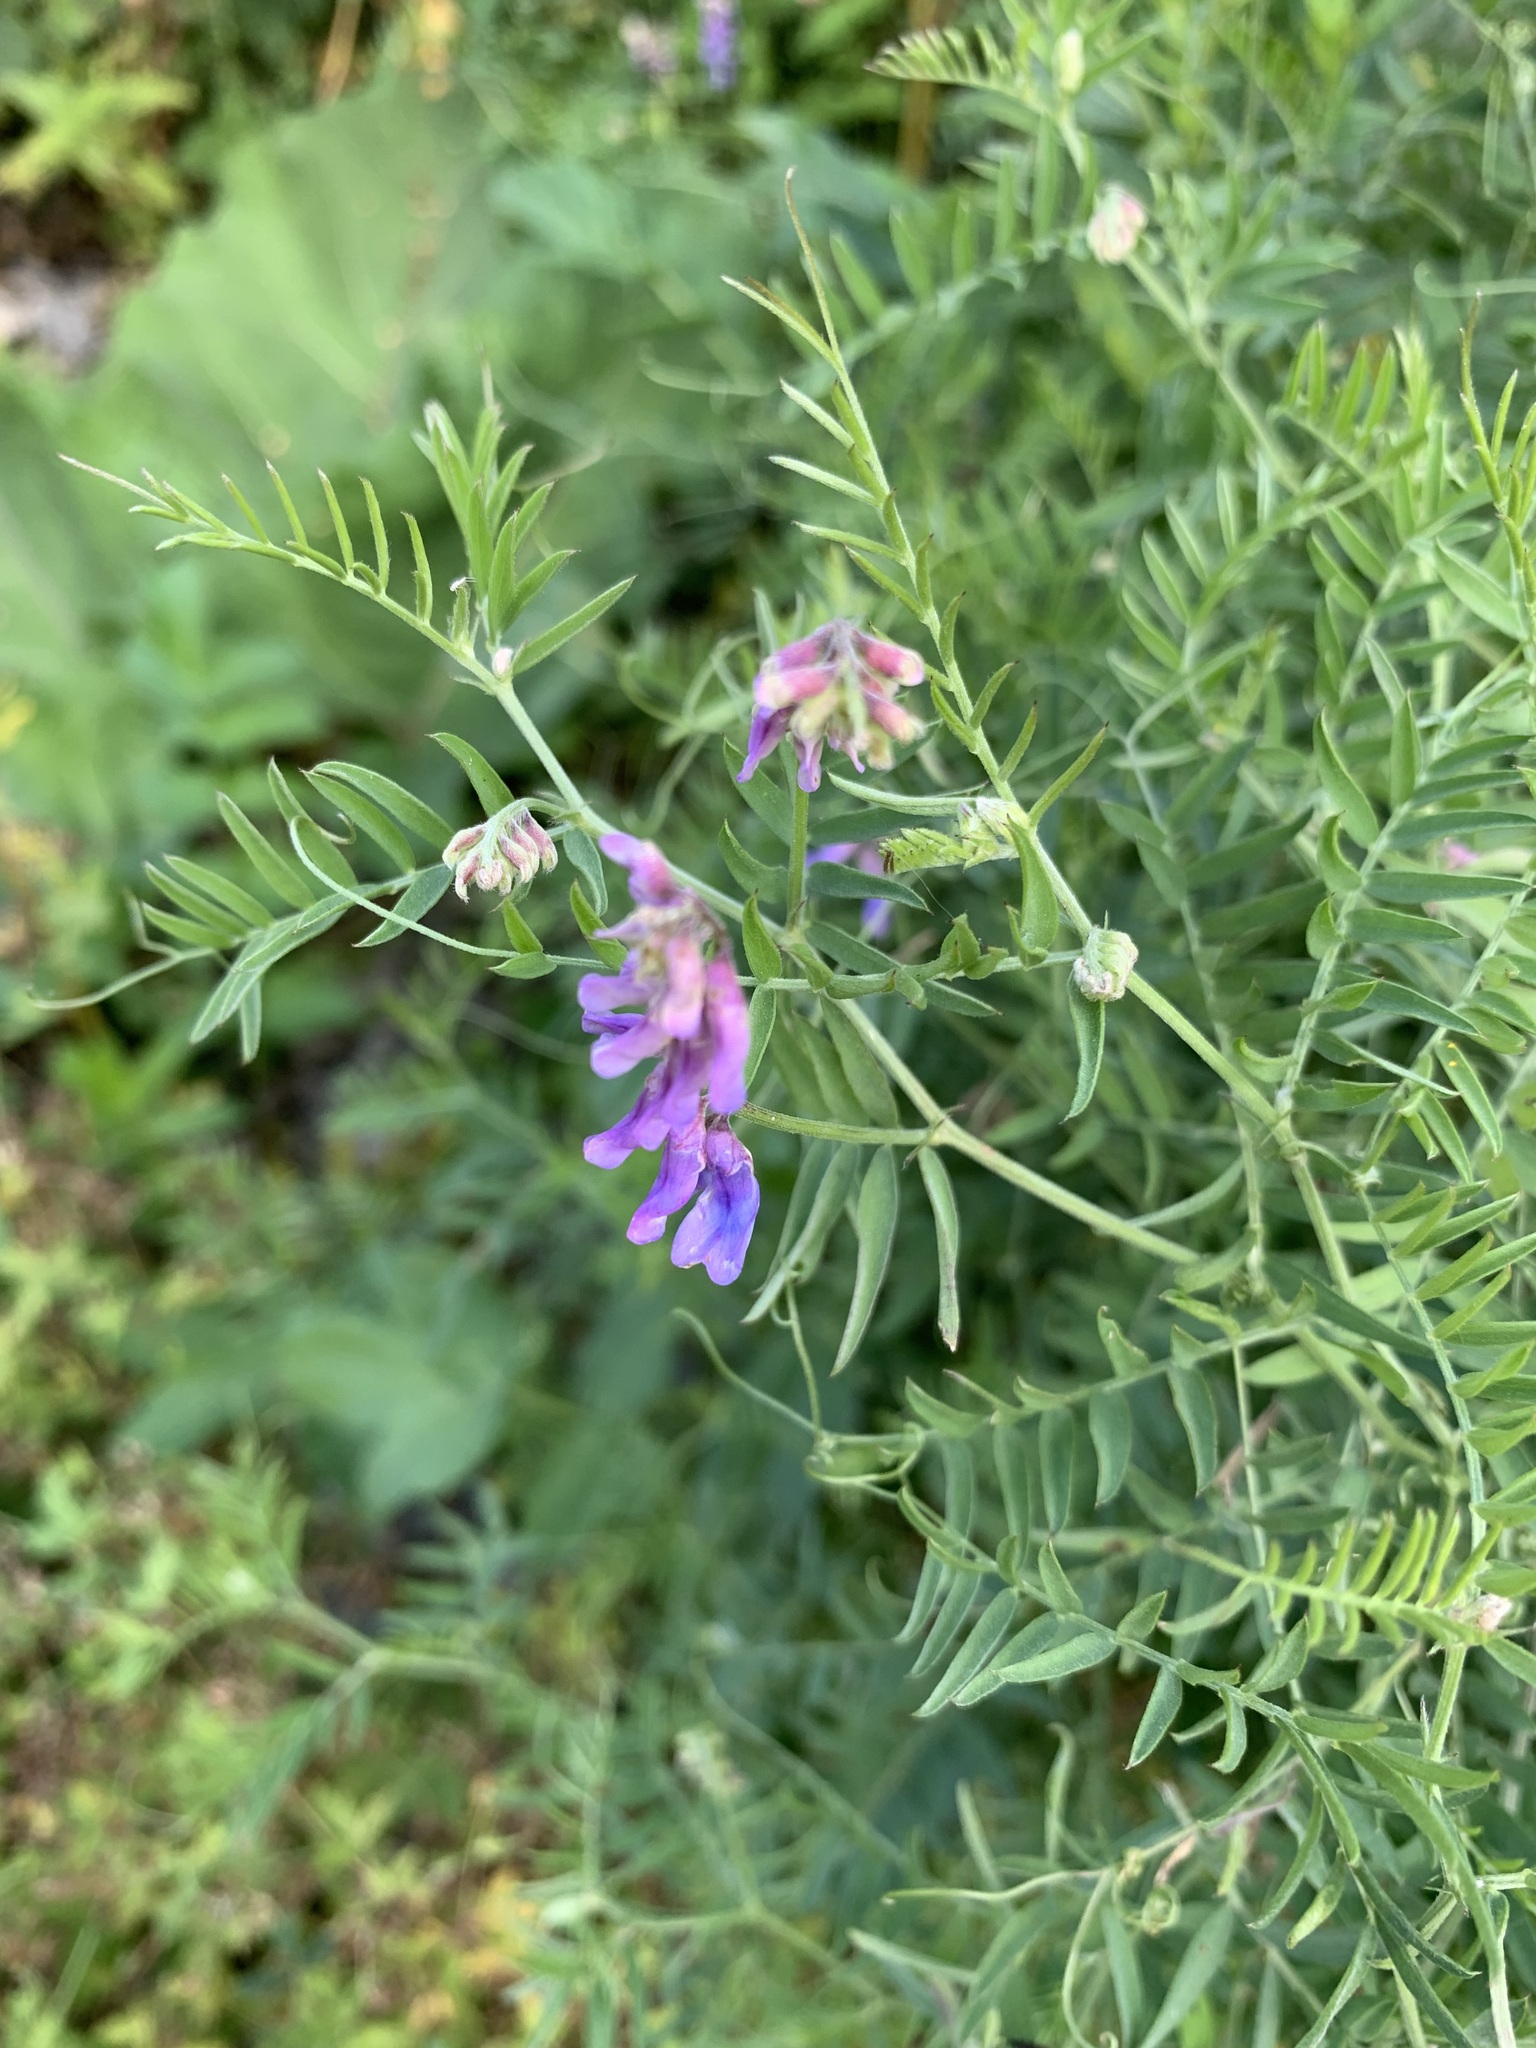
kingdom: Plantae
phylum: Tracheophyta
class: Magnoliopsida
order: Fabales
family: Fabaceae
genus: Vicia
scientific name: Vicia cracca
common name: Bird vetch
